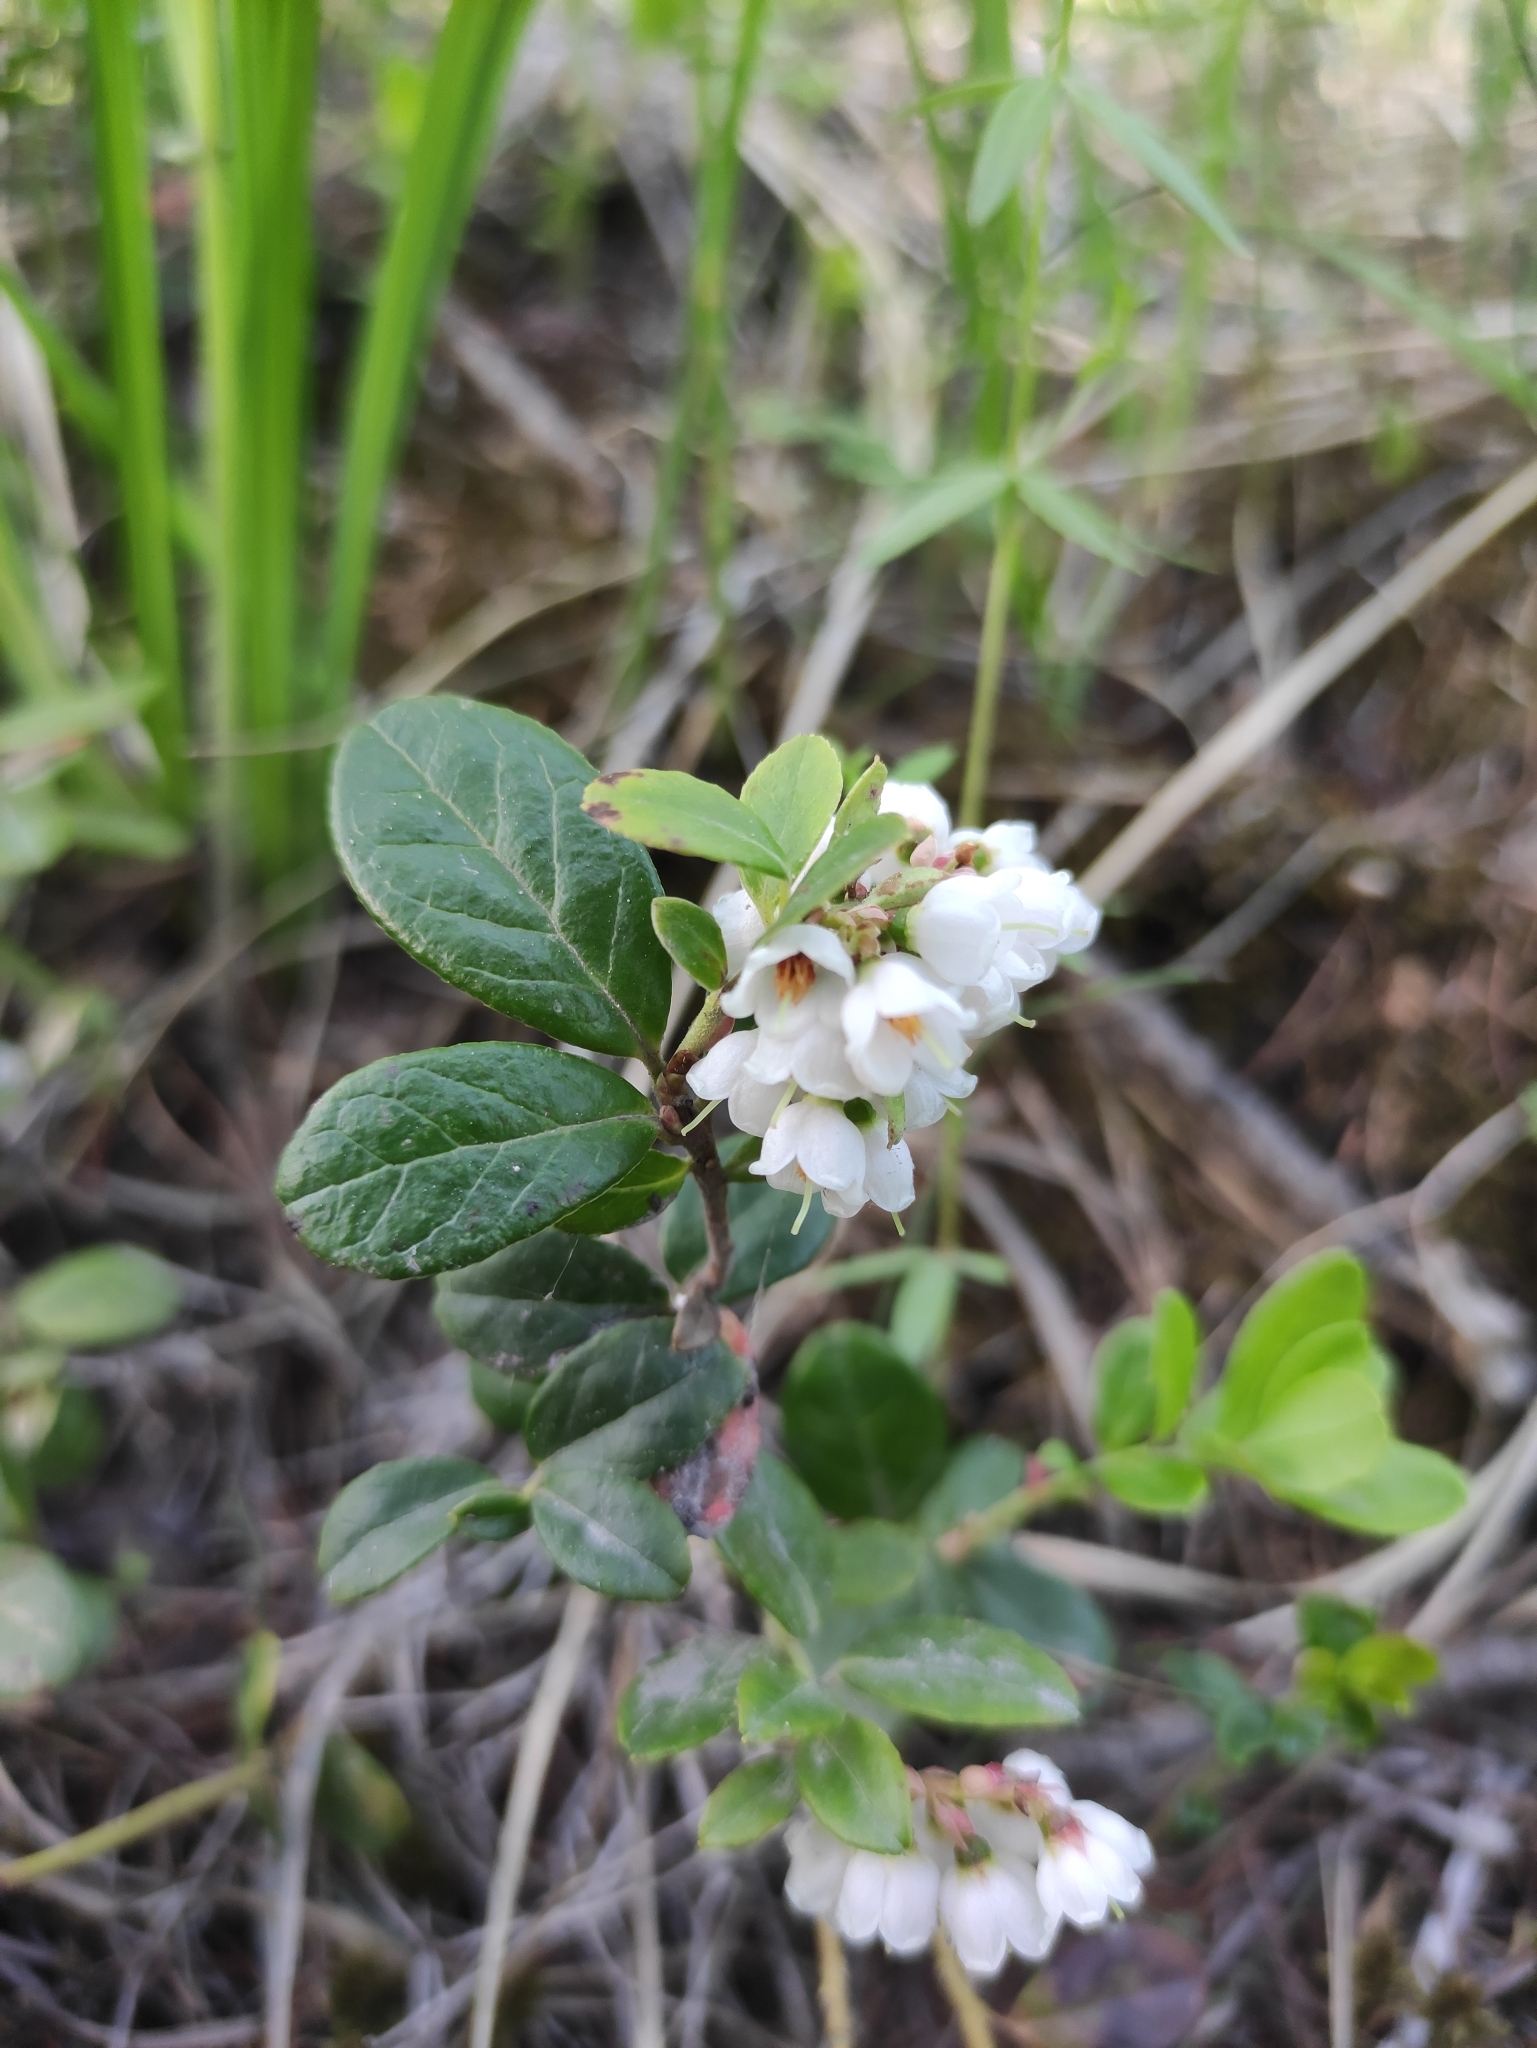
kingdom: Plantae
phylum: Tracheophyta
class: Magnoliopsida
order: Ericales
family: Ericaceae
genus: Vaccinium
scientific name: Vaccinium vitis-idaea
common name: Cowberry
